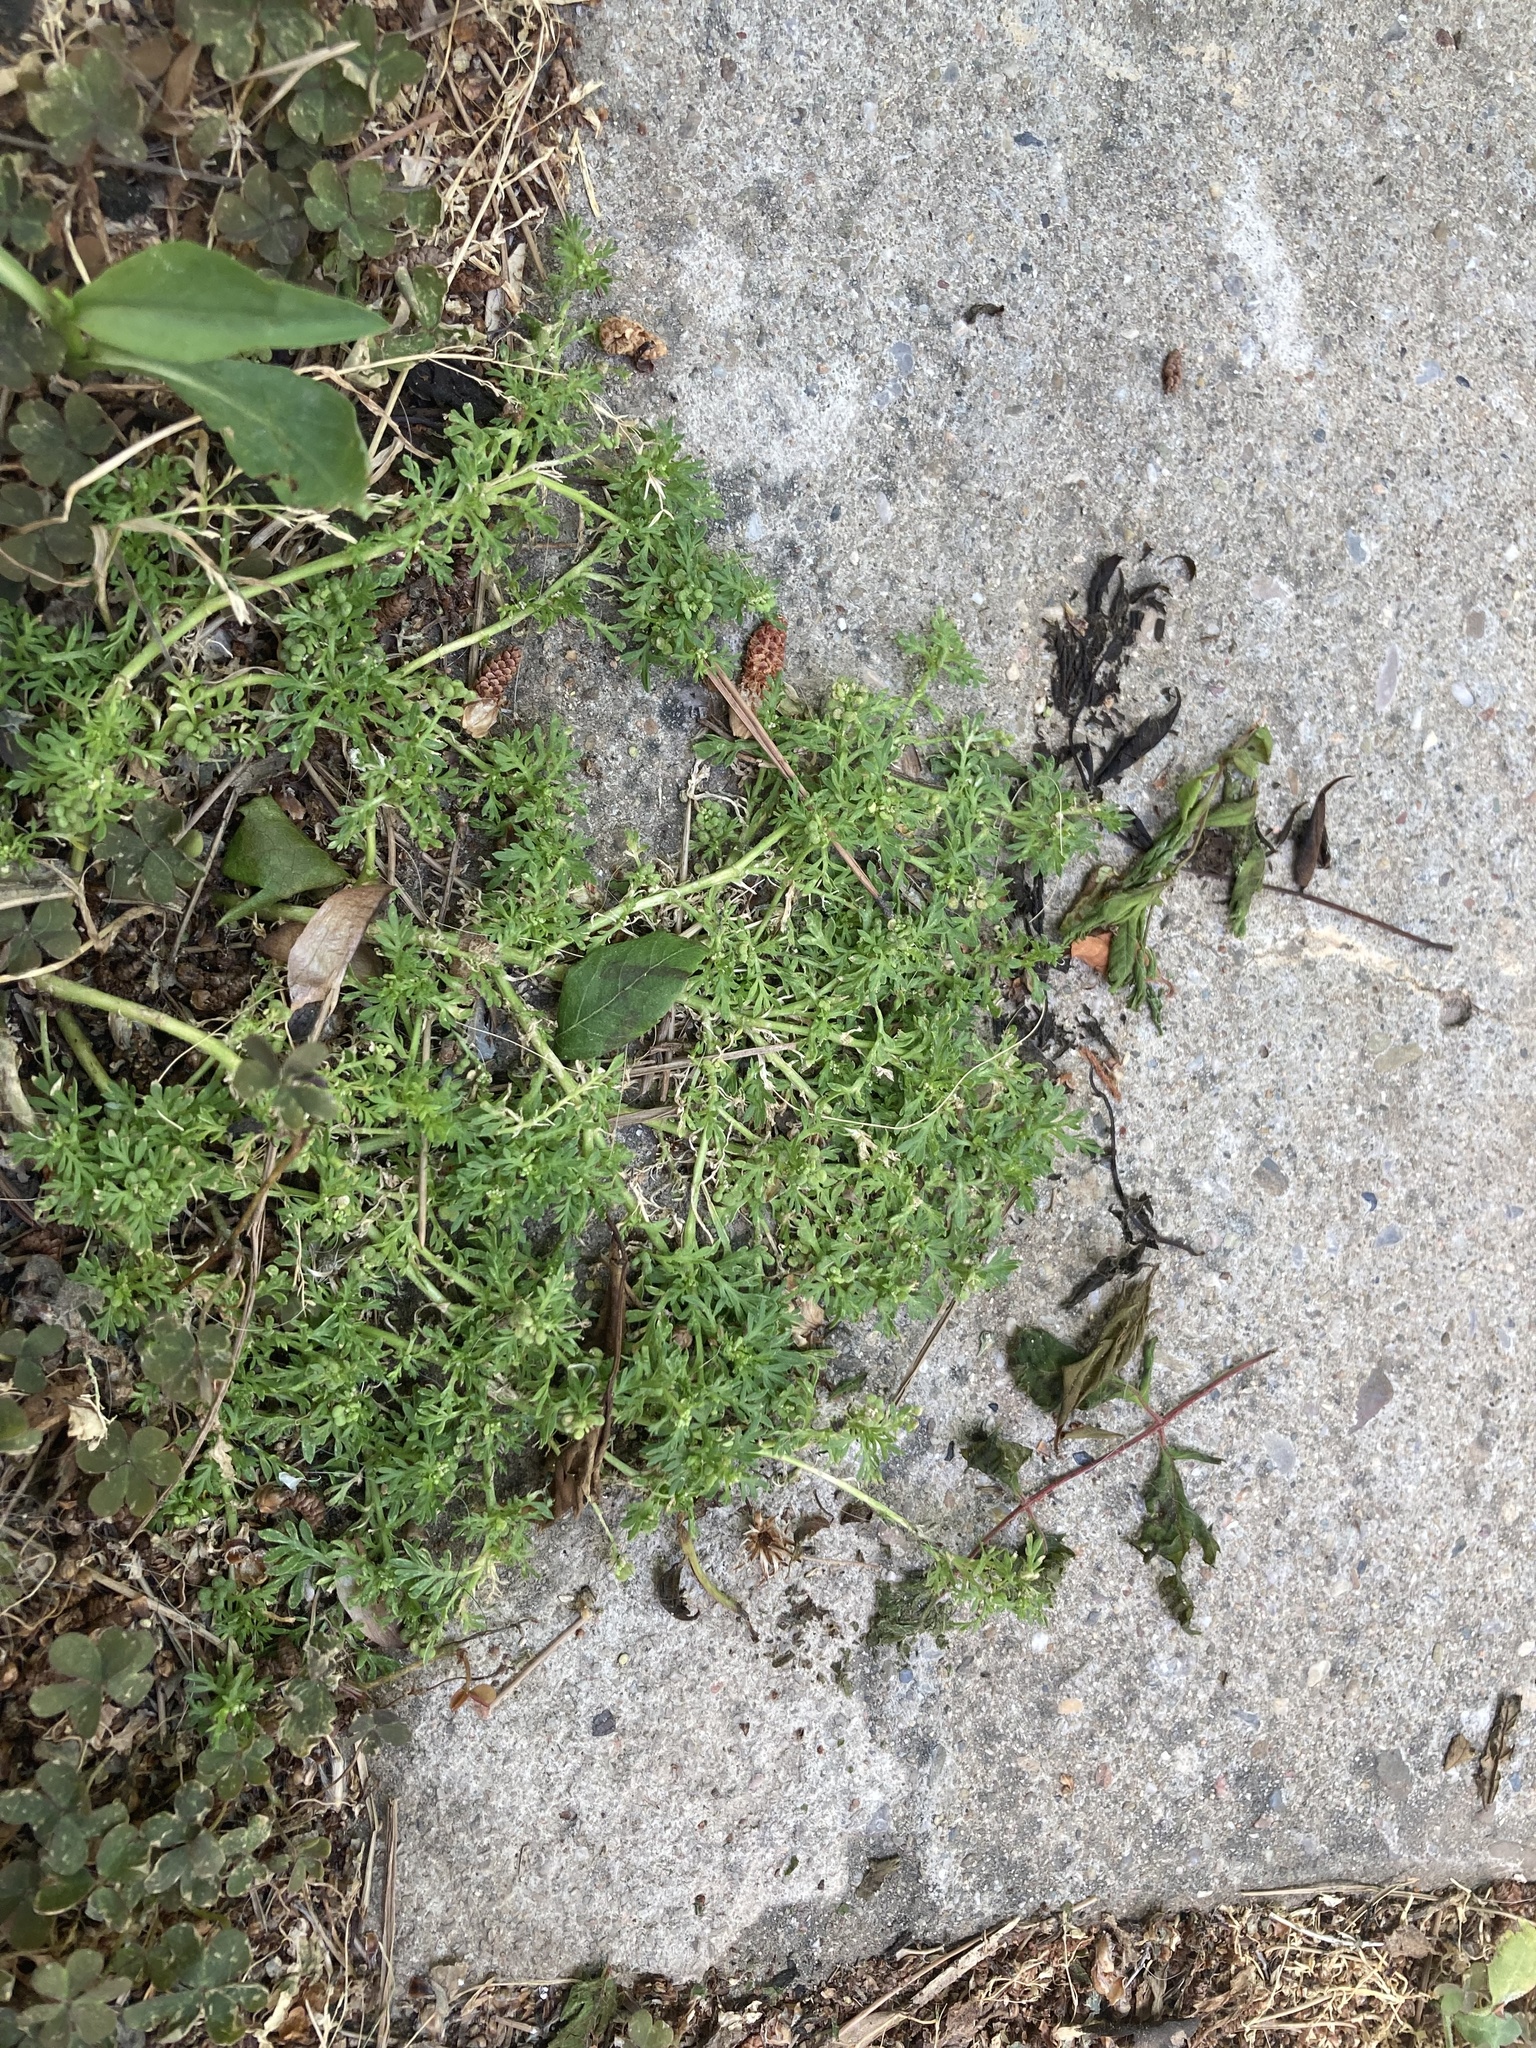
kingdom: Plantae
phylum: Tracheophyta
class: Magnoliopsida
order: Brassicales
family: Brassicaceae
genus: Lepidium
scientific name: Lepidium didymum
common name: Lesser swinecress
